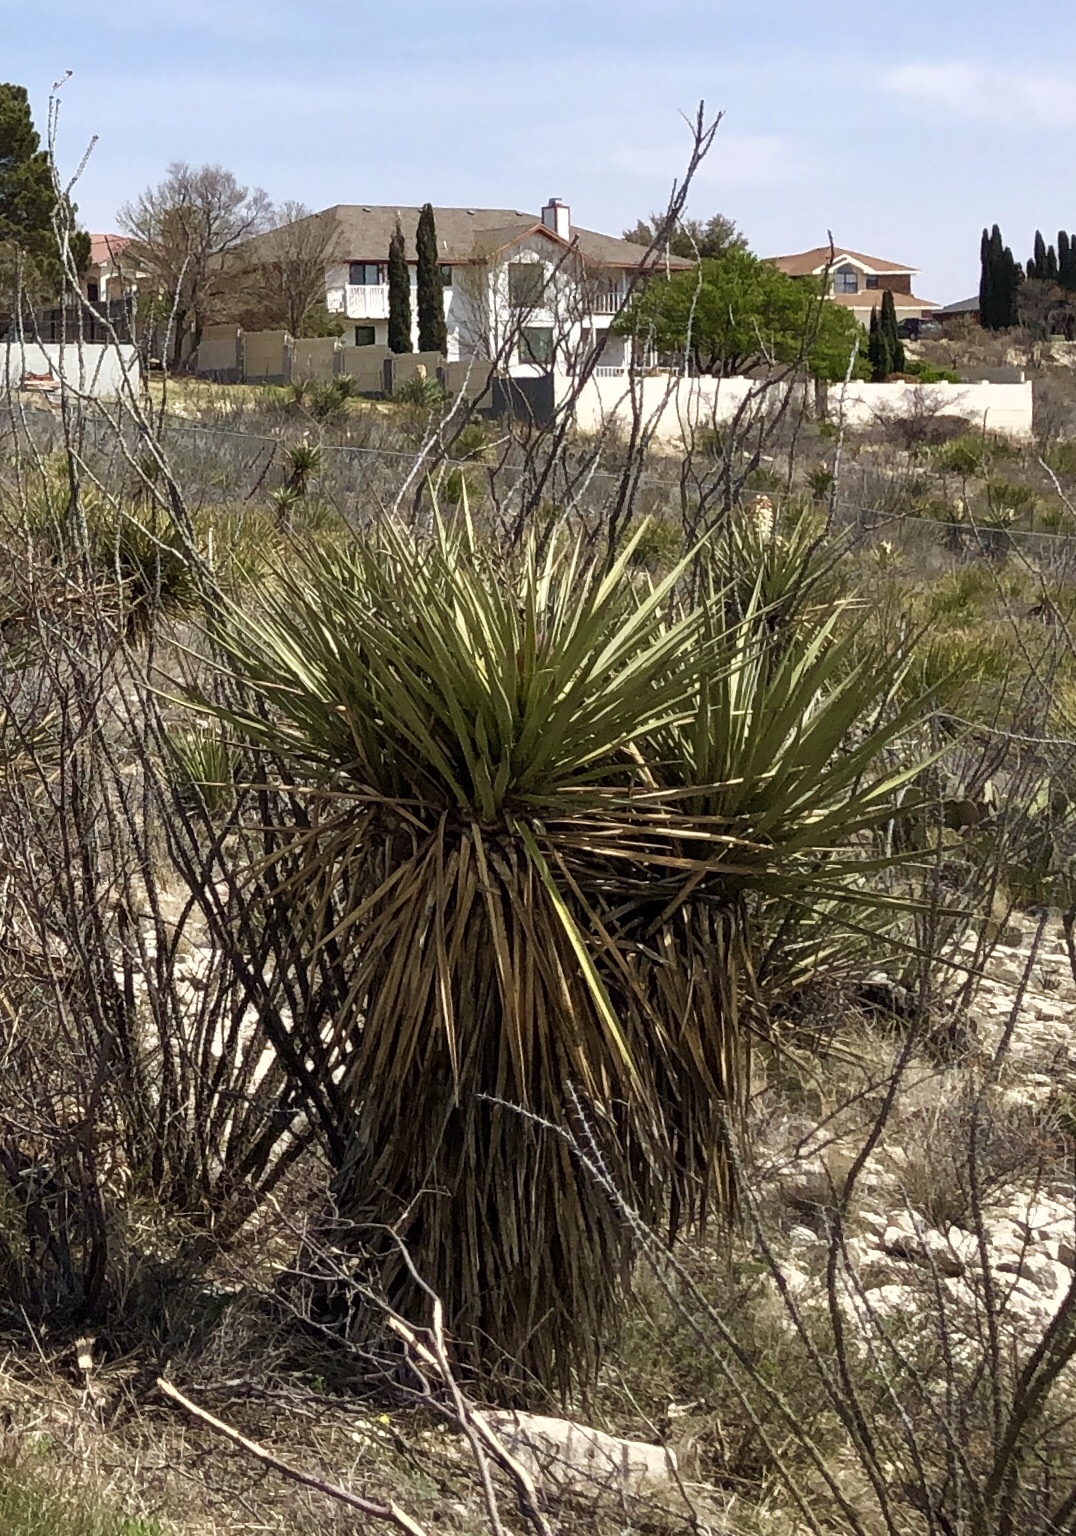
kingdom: Plantae
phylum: Tracheophyta
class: Liliopsida
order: Asparagales
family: Asparagaceae
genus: Yucca
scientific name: Yucca treculiana
